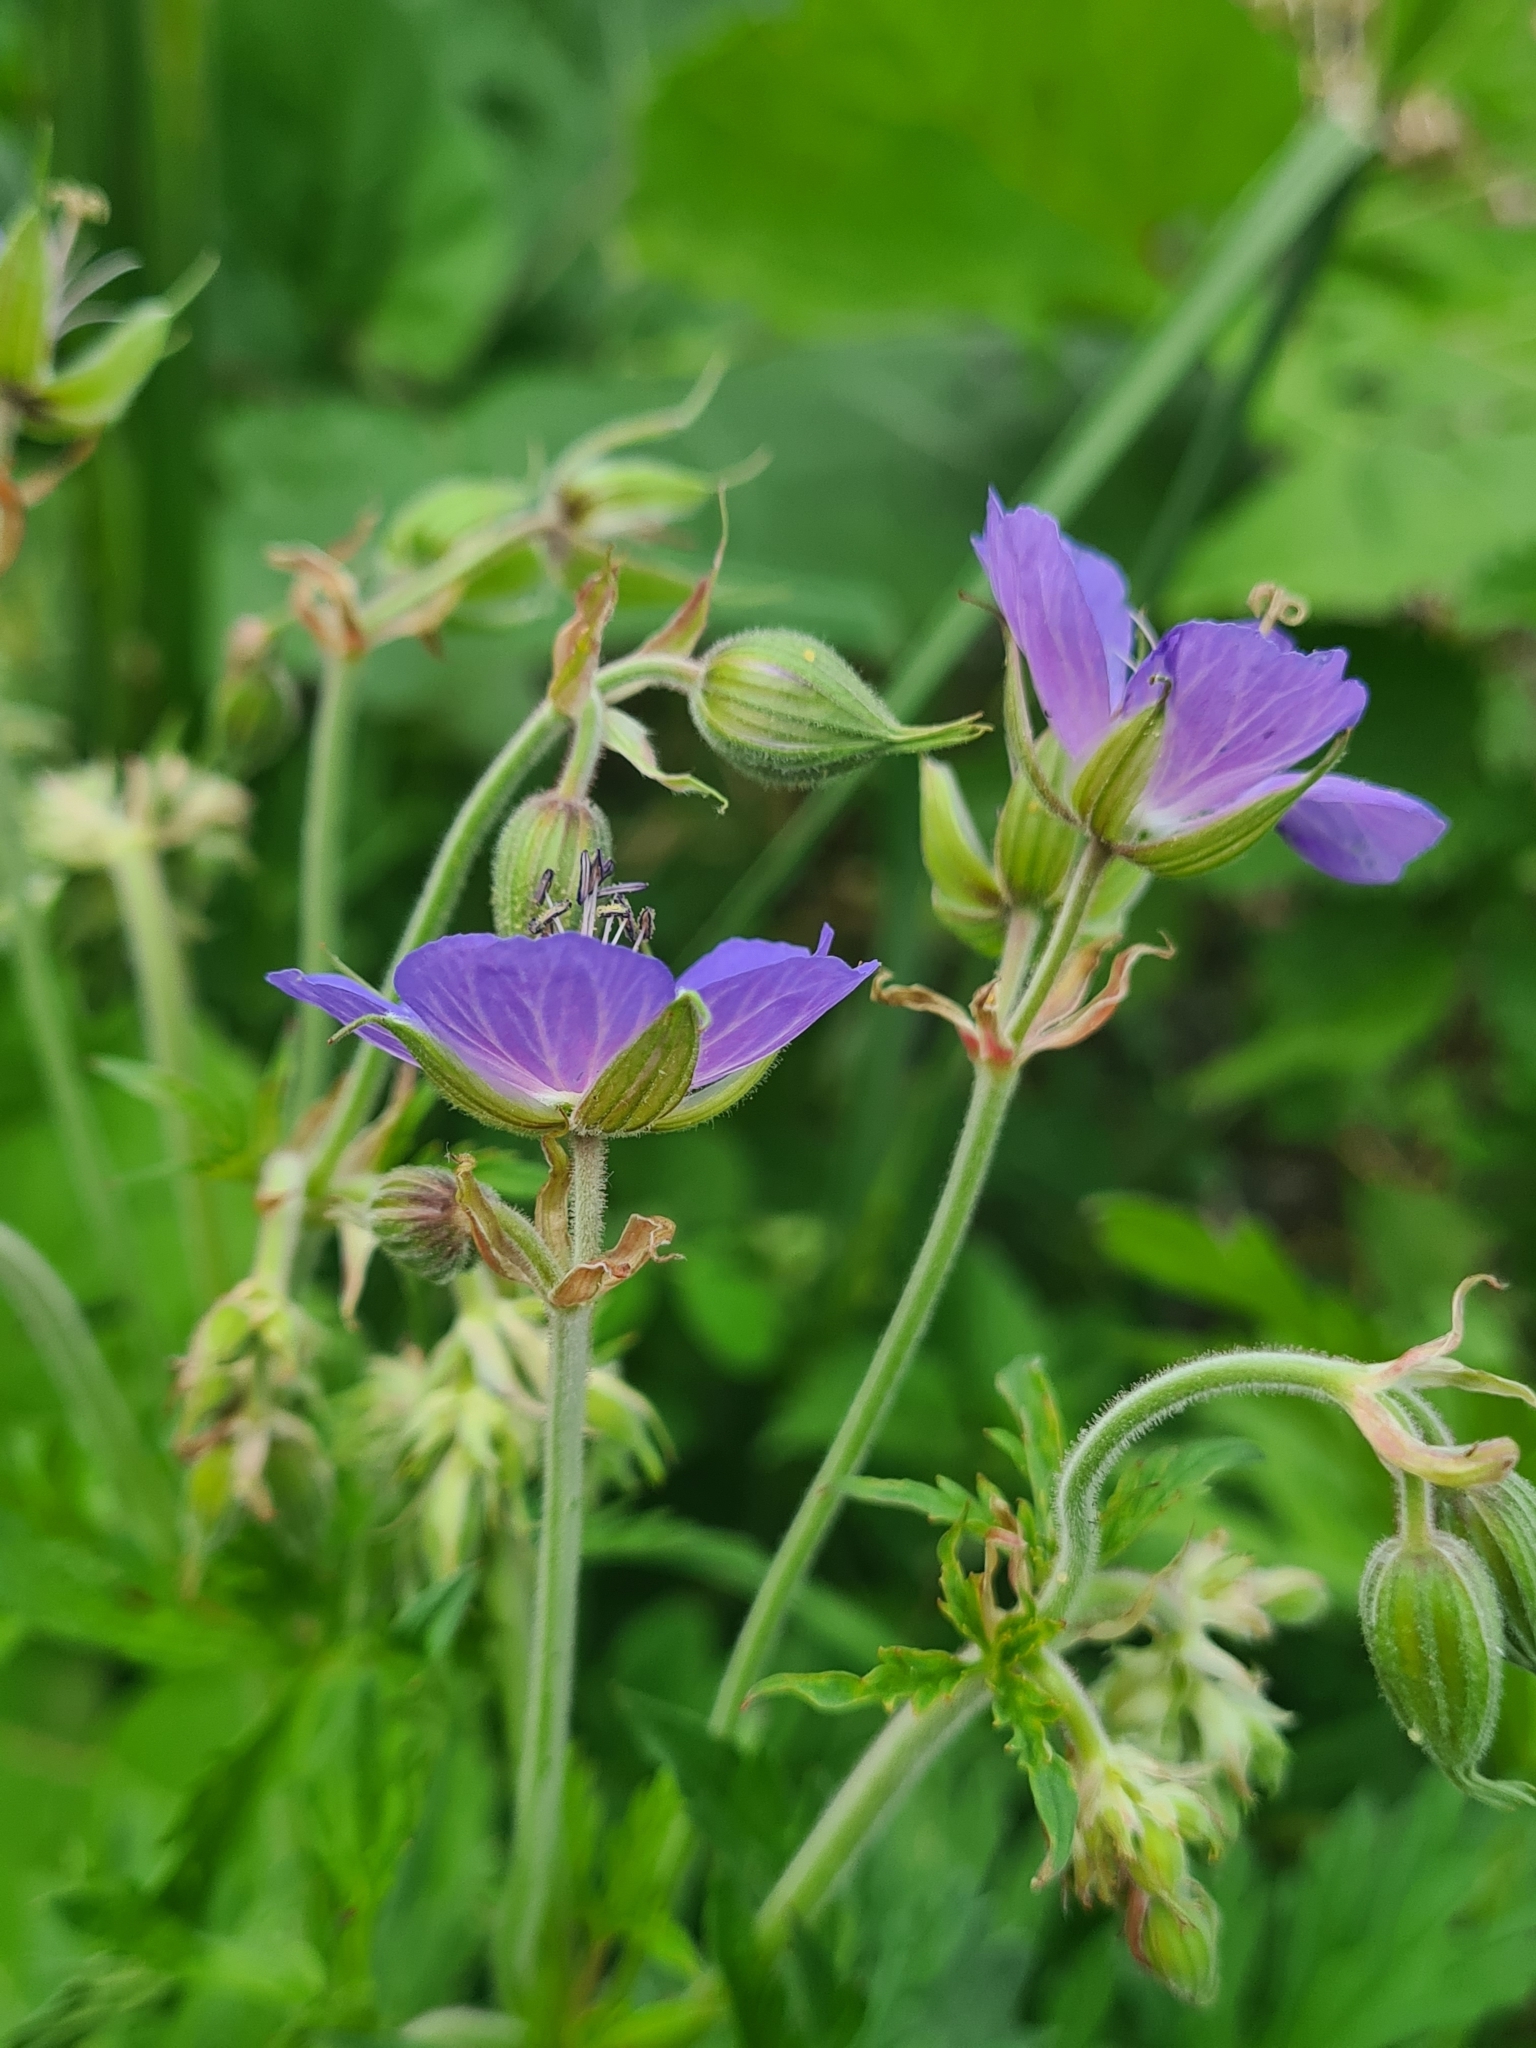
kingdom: Plantae
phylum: Tracheophyta
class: Magnoliopsida
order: Geraniales
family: Geraniaceae
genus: Geranium
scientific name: Geranium pratense
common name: Meadow crane's-bill
